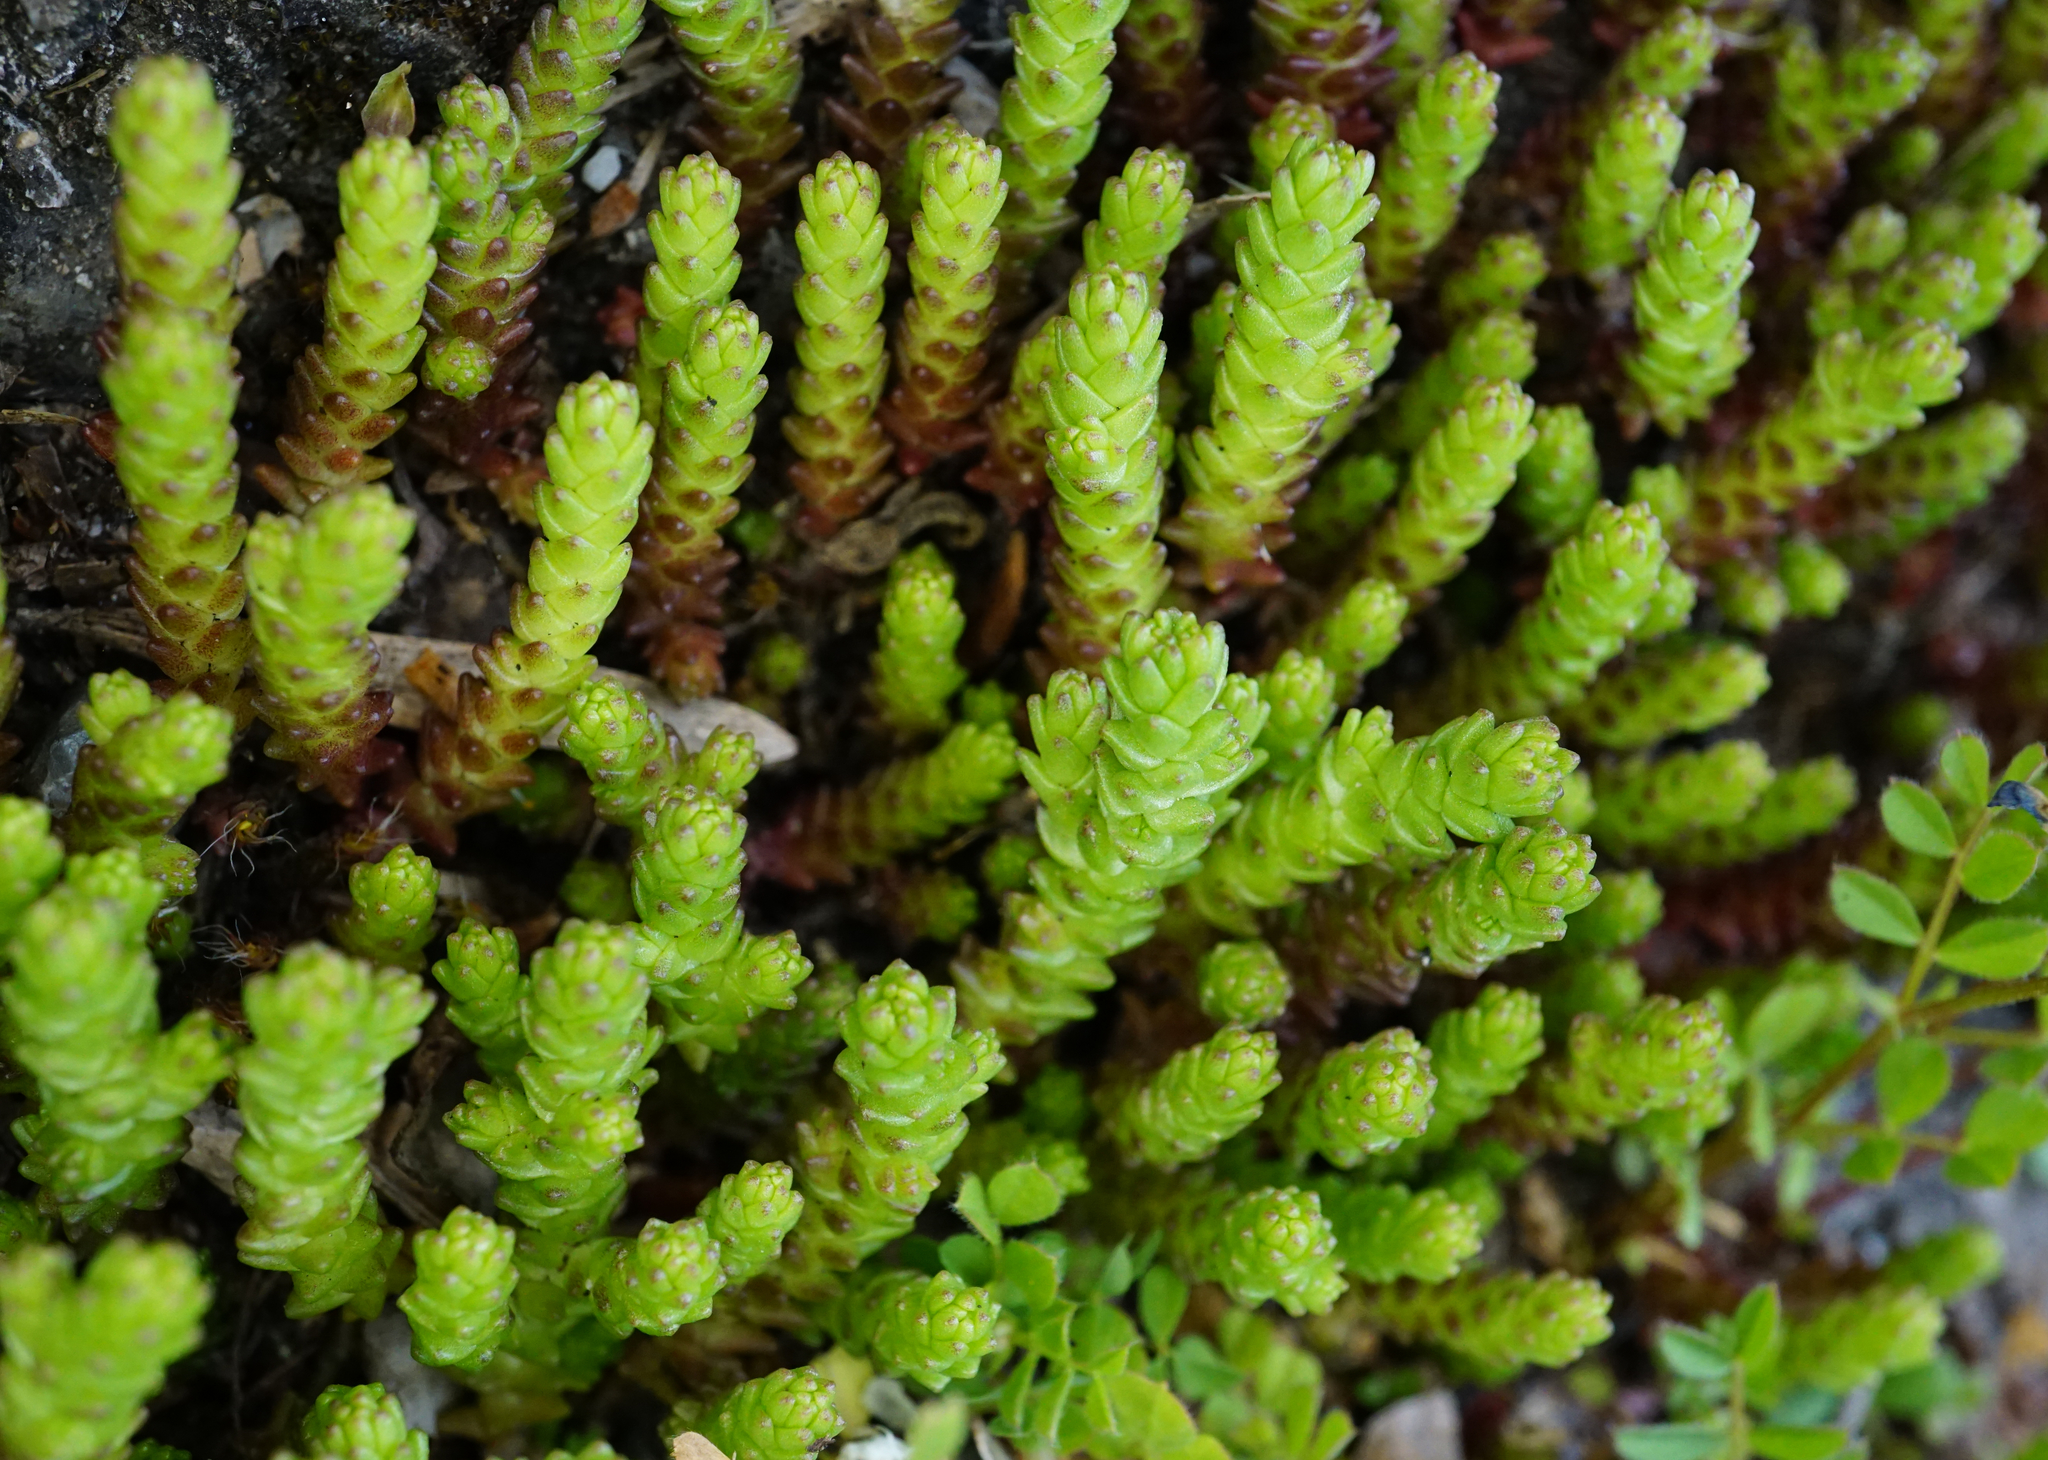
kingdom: Plantae
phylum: Tracheophyta
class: Magnoliopsida
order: Saxifragales
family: Crassulaceae
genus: Sedum
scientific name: Sedum acre
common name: Biting stonecrop
